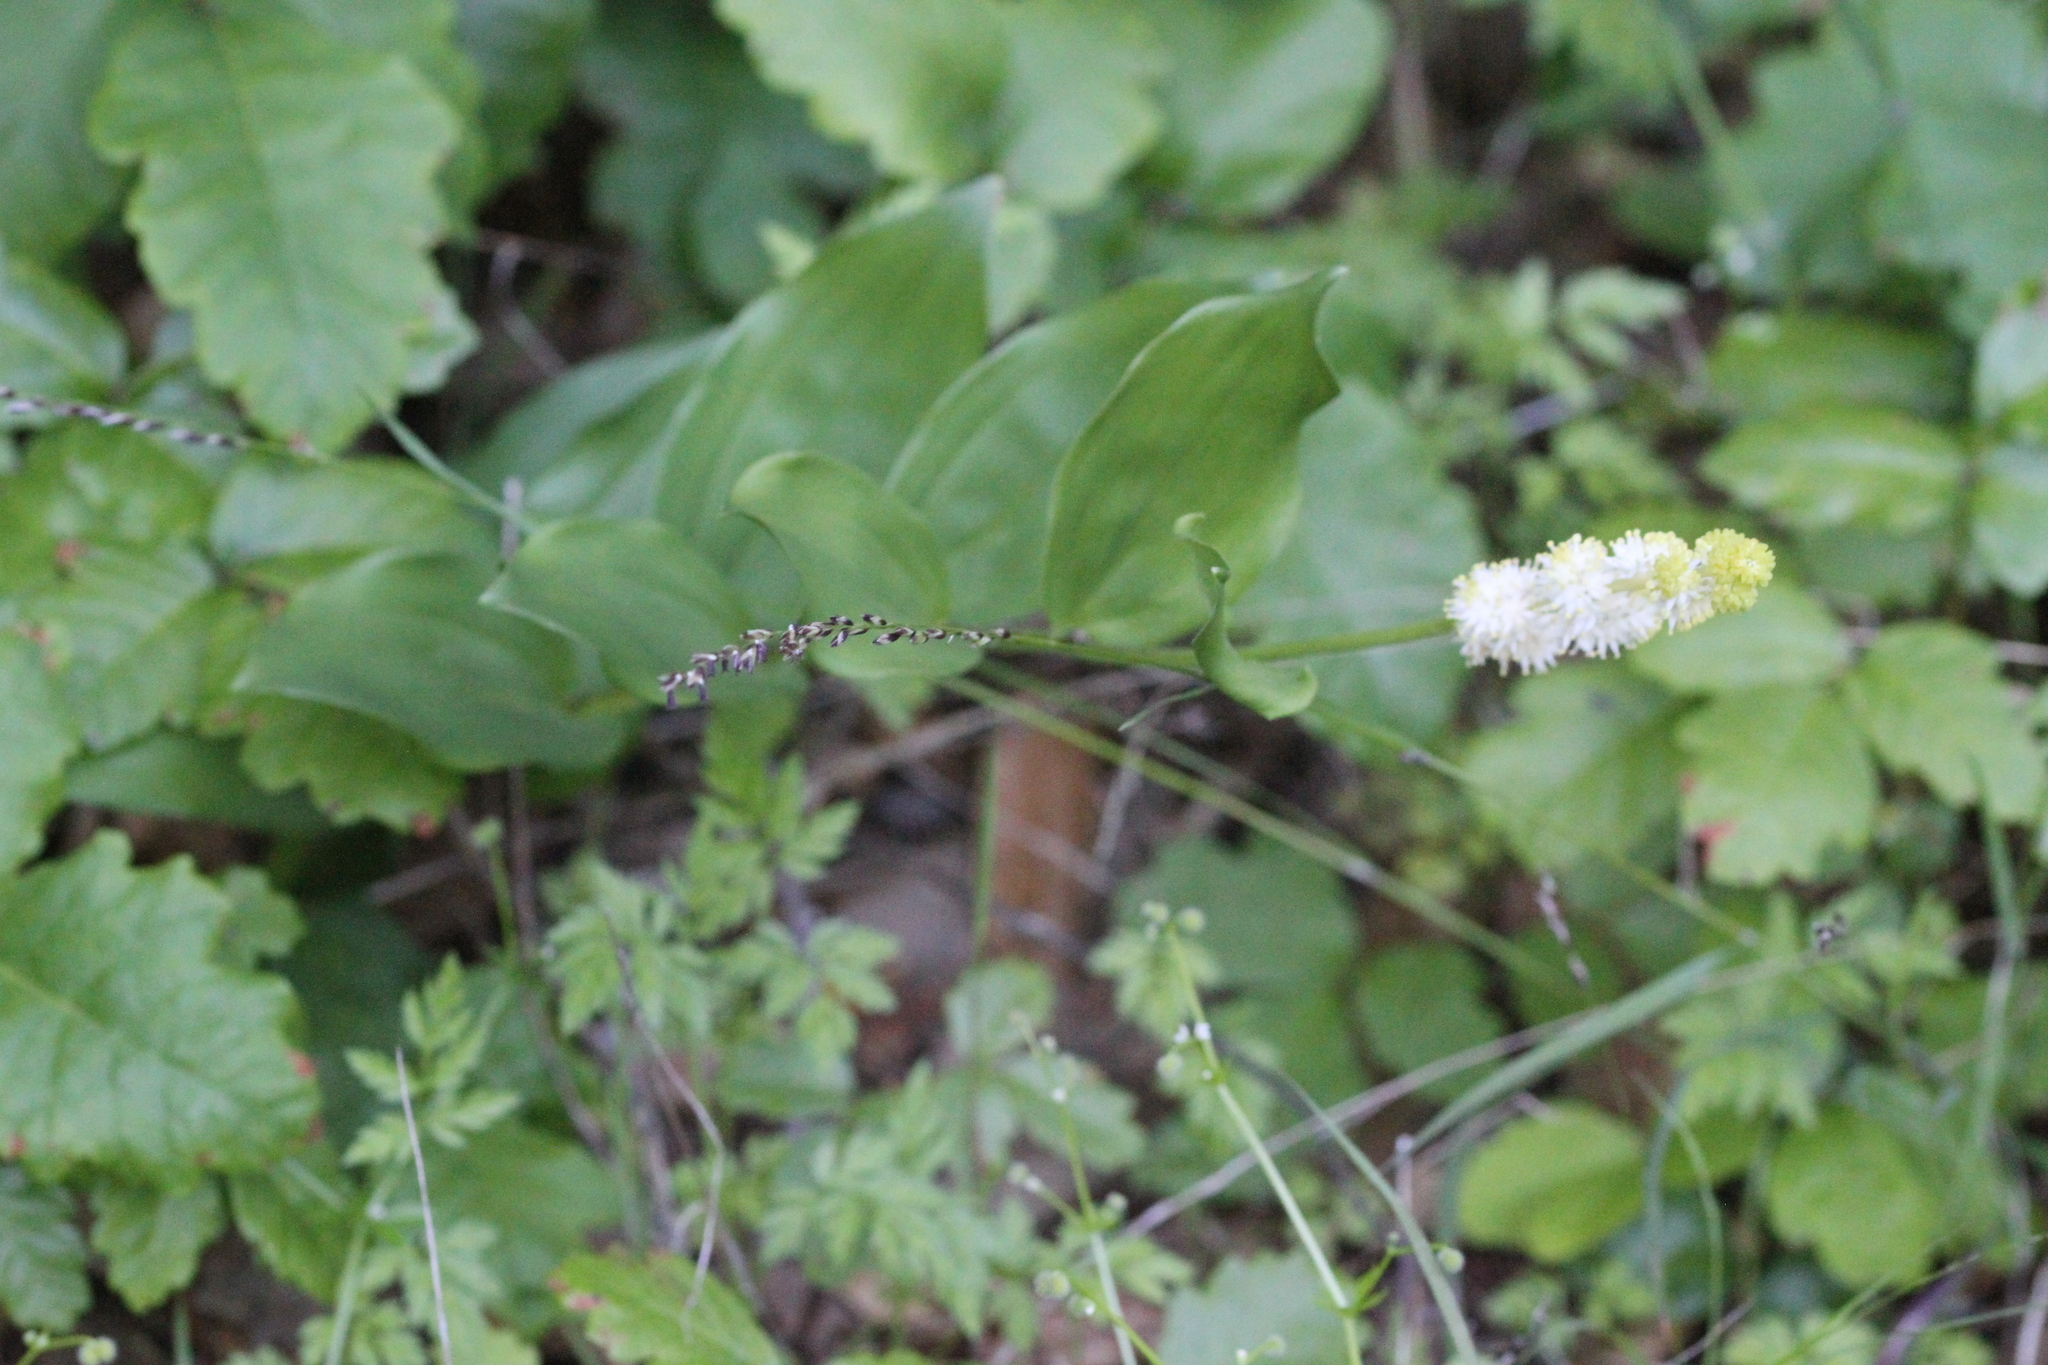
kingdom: Plantae
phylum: Tracheophyta
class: Liliopsida
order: Asparagales
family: Asparagaceae
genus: Maianthemum
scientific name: Maianthemum racemosum
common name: False spikenard
